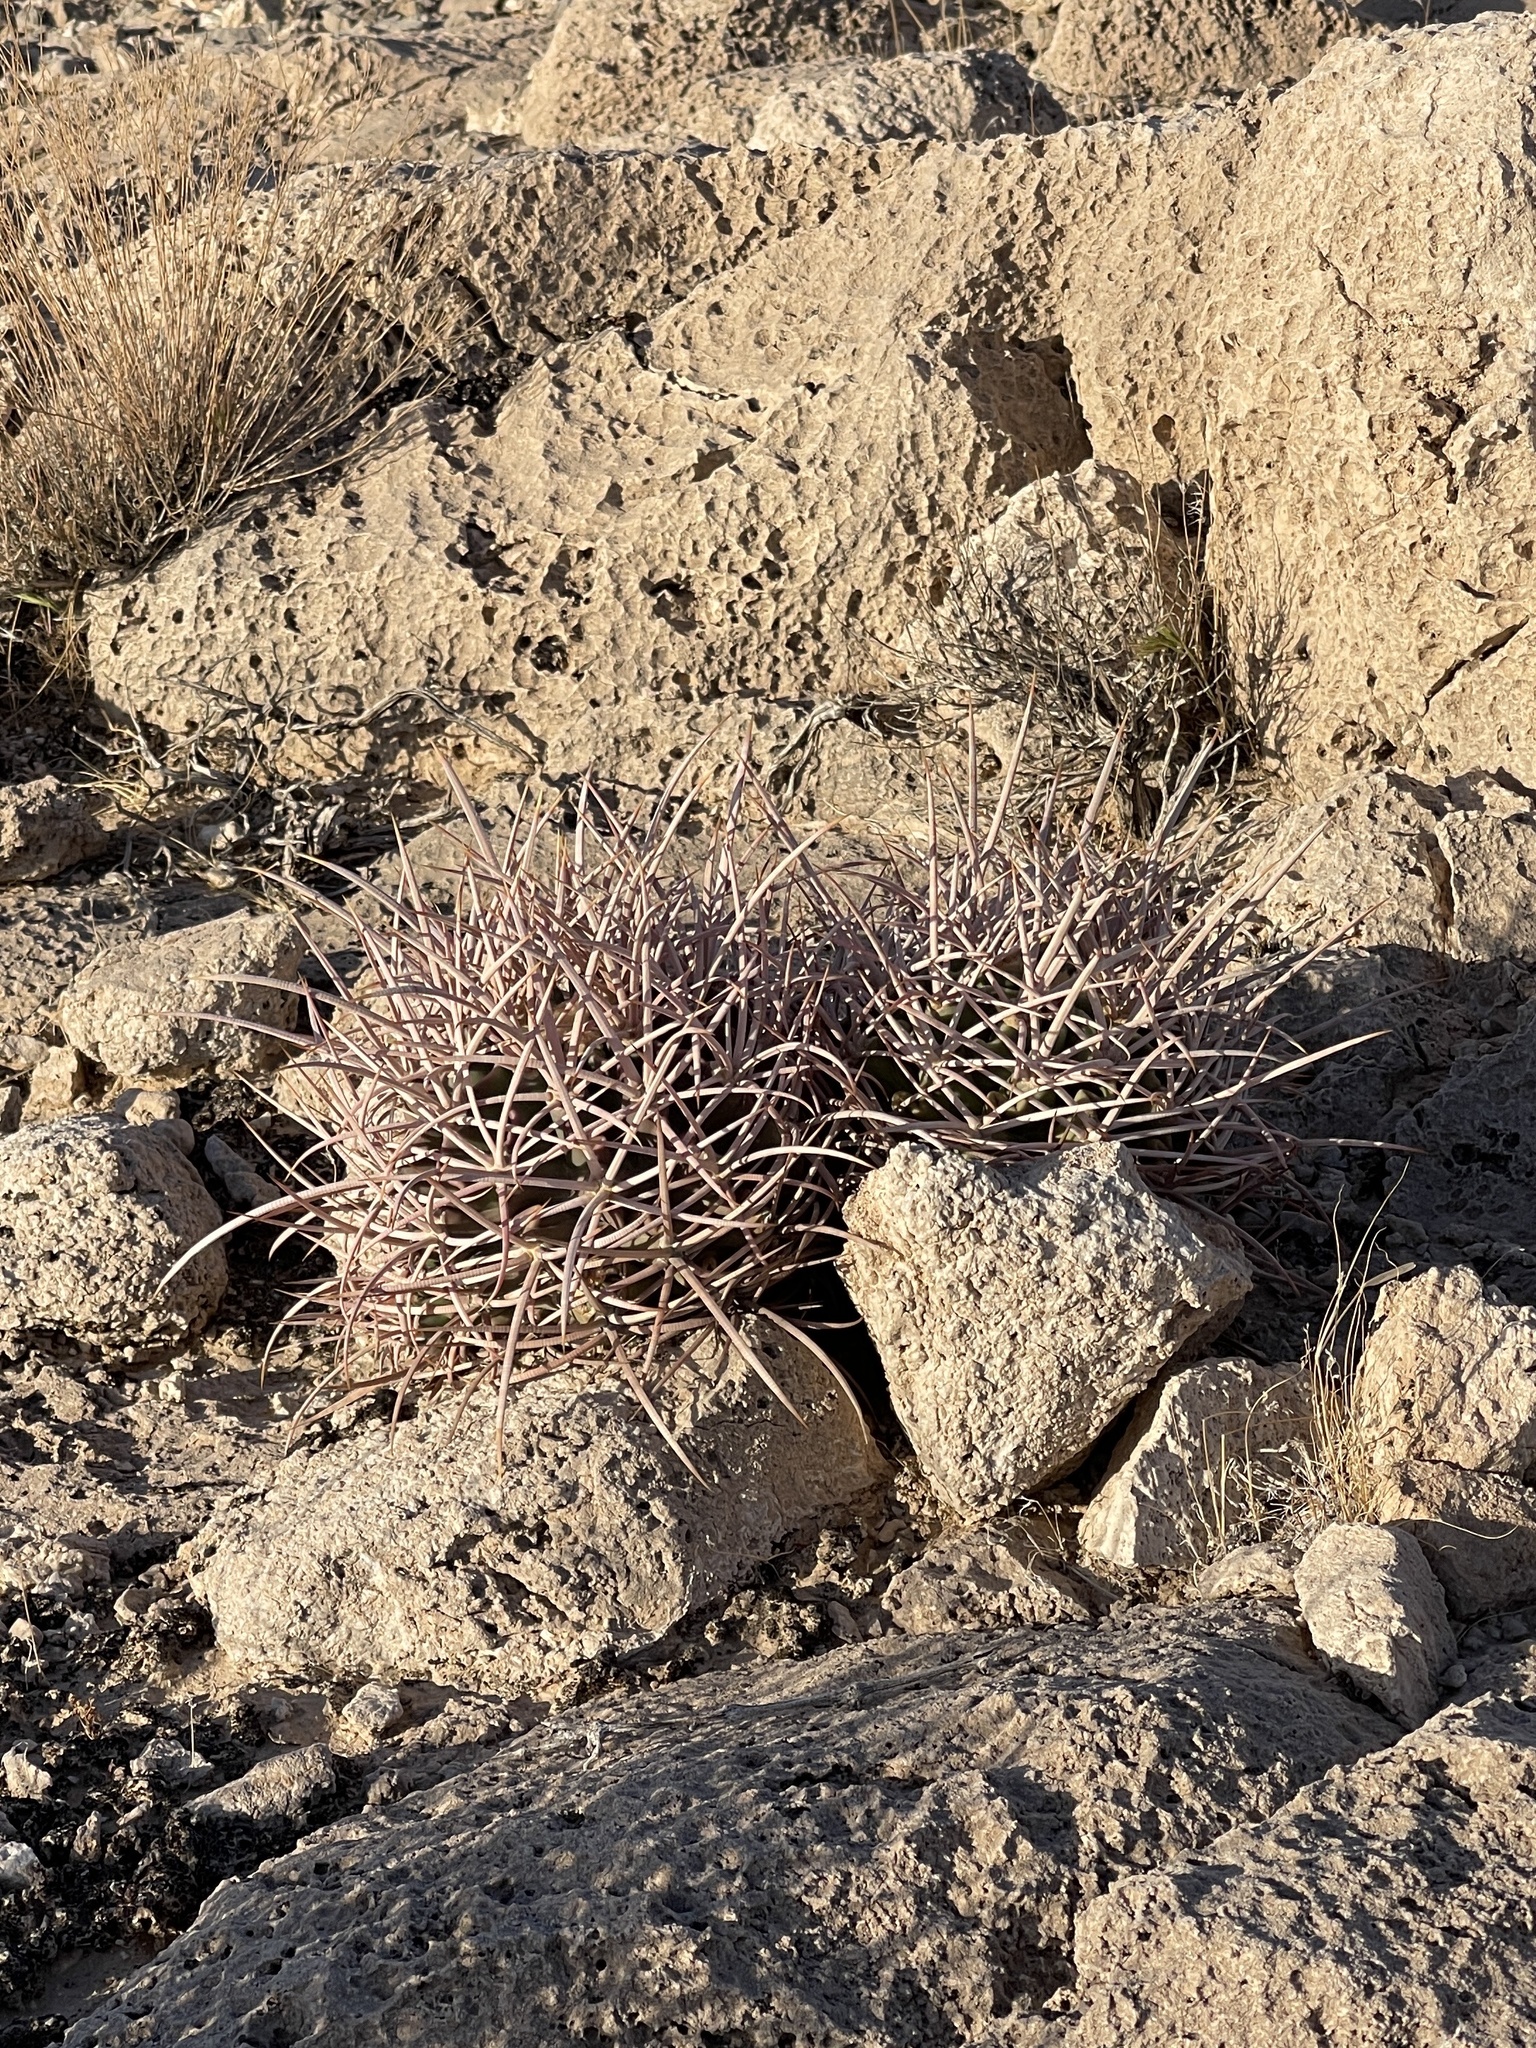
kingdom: Plantae
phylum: Tracheophyta
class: Magnoliopsida
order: Caryophyllales
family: Cactaceae
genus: Echinocactus
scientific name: Echinocactus polycephalus
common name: Cottontop cactus
